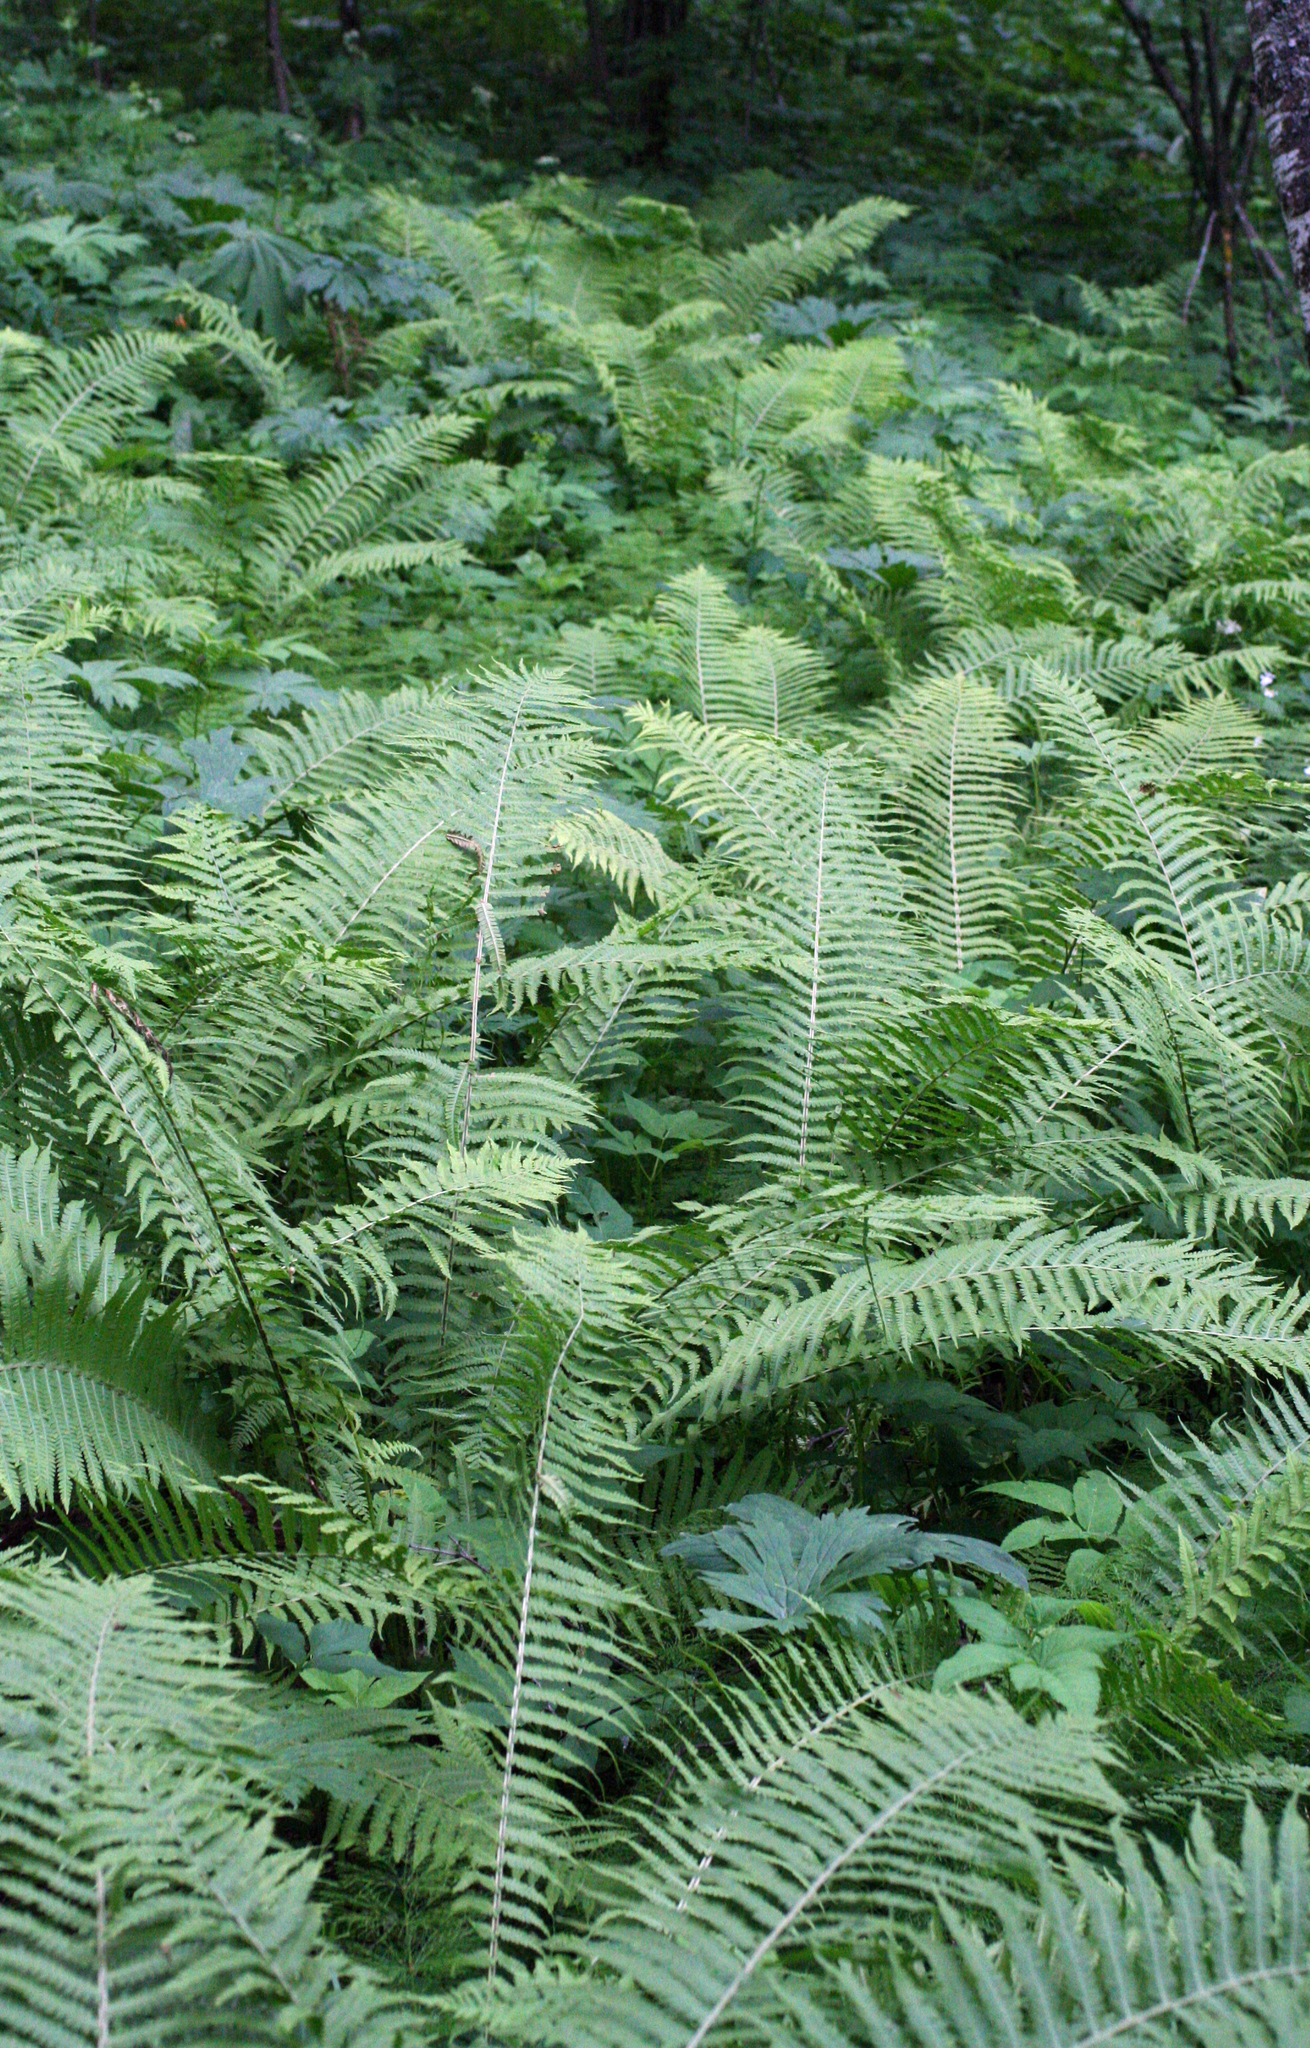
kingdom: Plantae
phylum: Tracheophyta
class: Polypodiopsida
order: Polypodiales
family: Onocleaceae
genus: Matteuccia
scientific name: Matteuccia struthiopteris
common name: Ostrich fern
